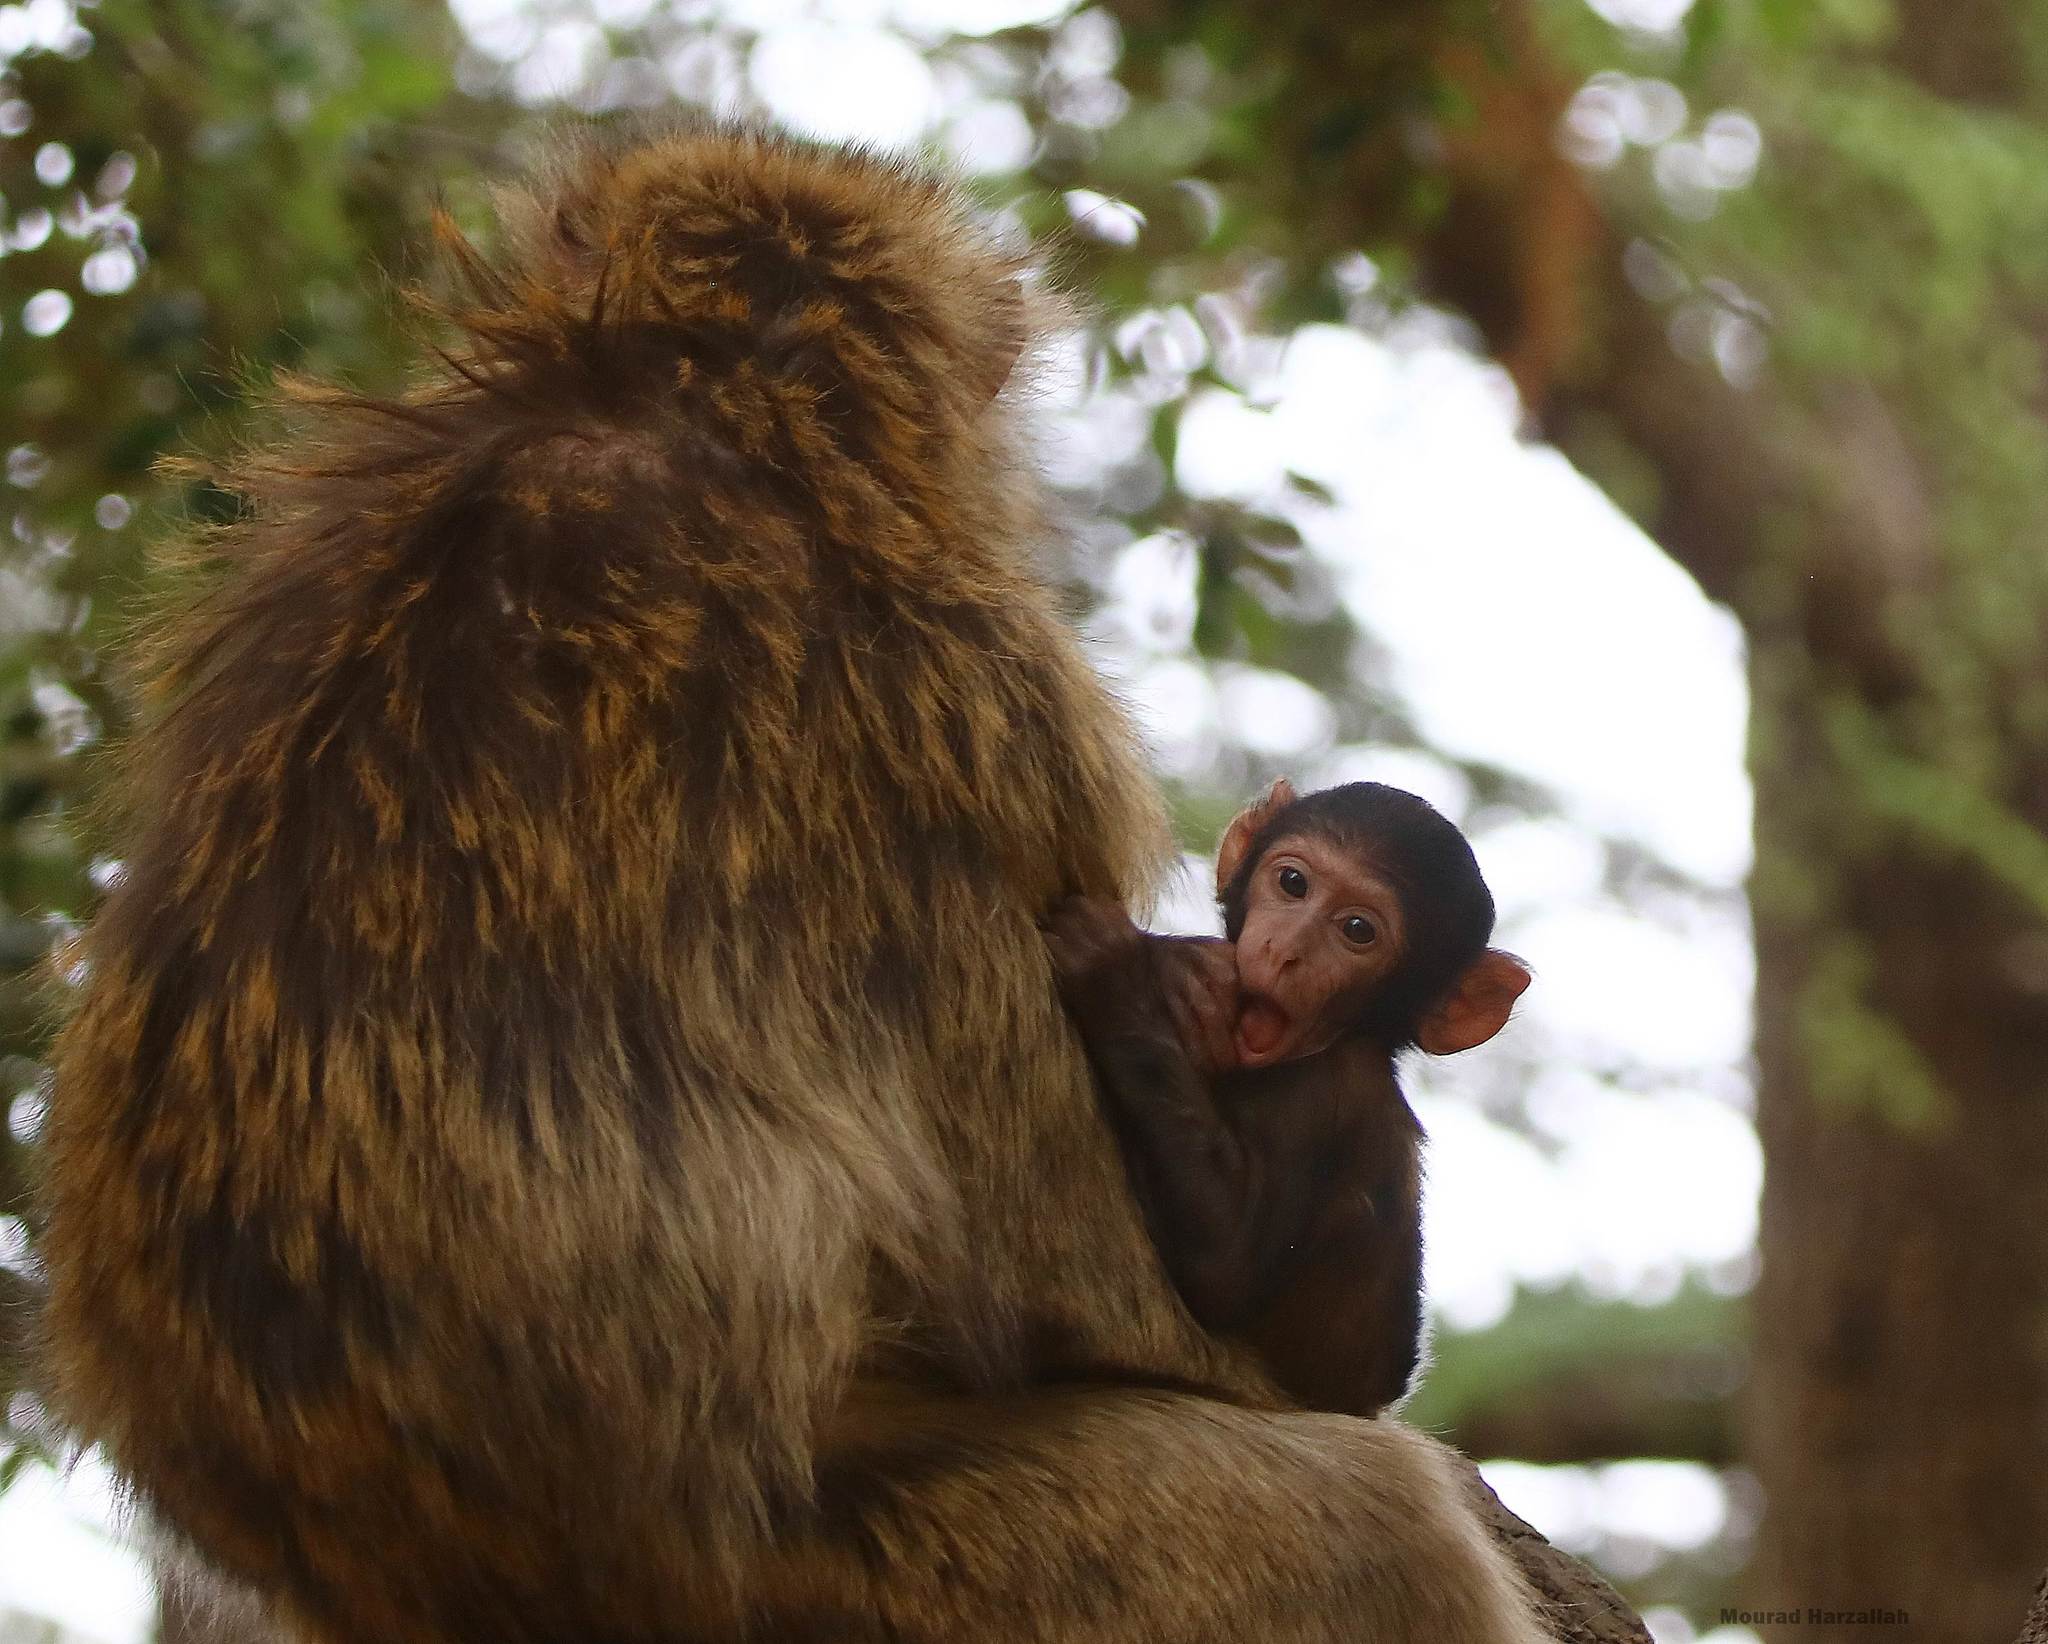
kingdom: Animalia
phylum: Chordata
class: Mammalia
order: Primates
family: Cercopithecidae
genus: Macaca
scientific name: Macaca sylvanus
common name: Barbary macaque
